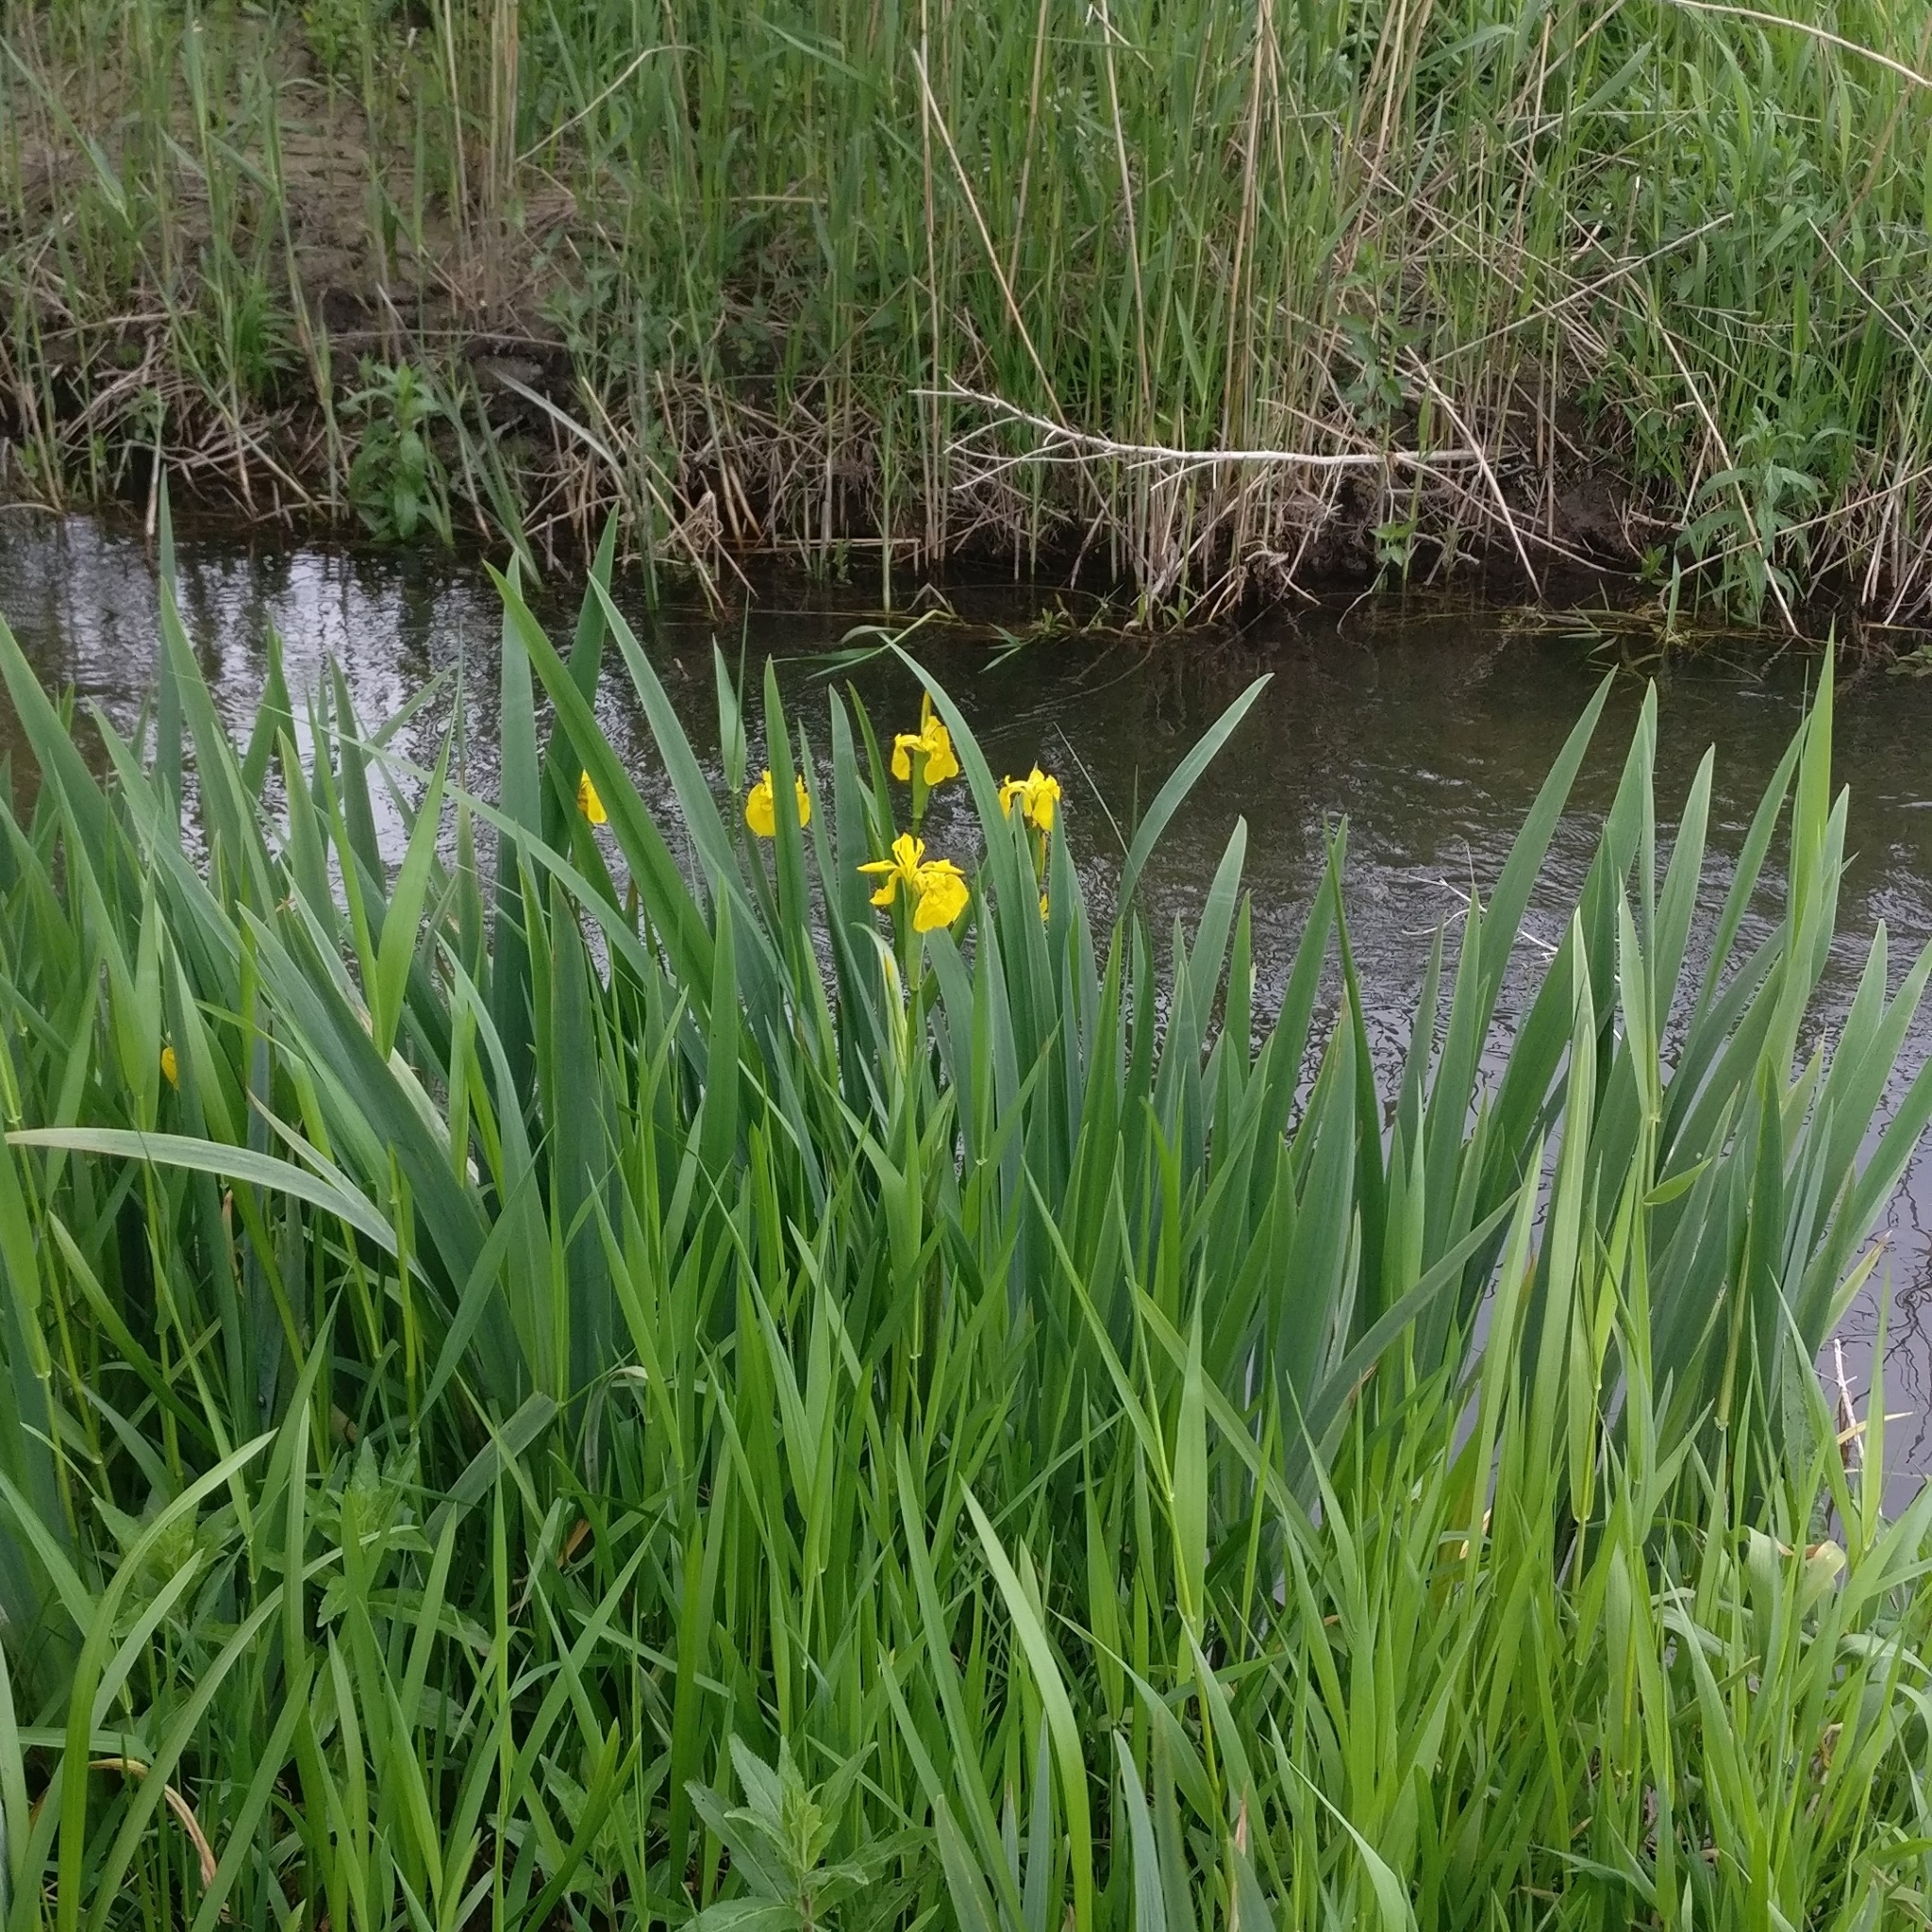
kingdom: Plantae
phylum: Tracheophyta
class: Liliopsida
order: Asparagales
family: Iridaceae
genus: Iris
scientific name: Iris pseudacorus
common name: Yellow flag
